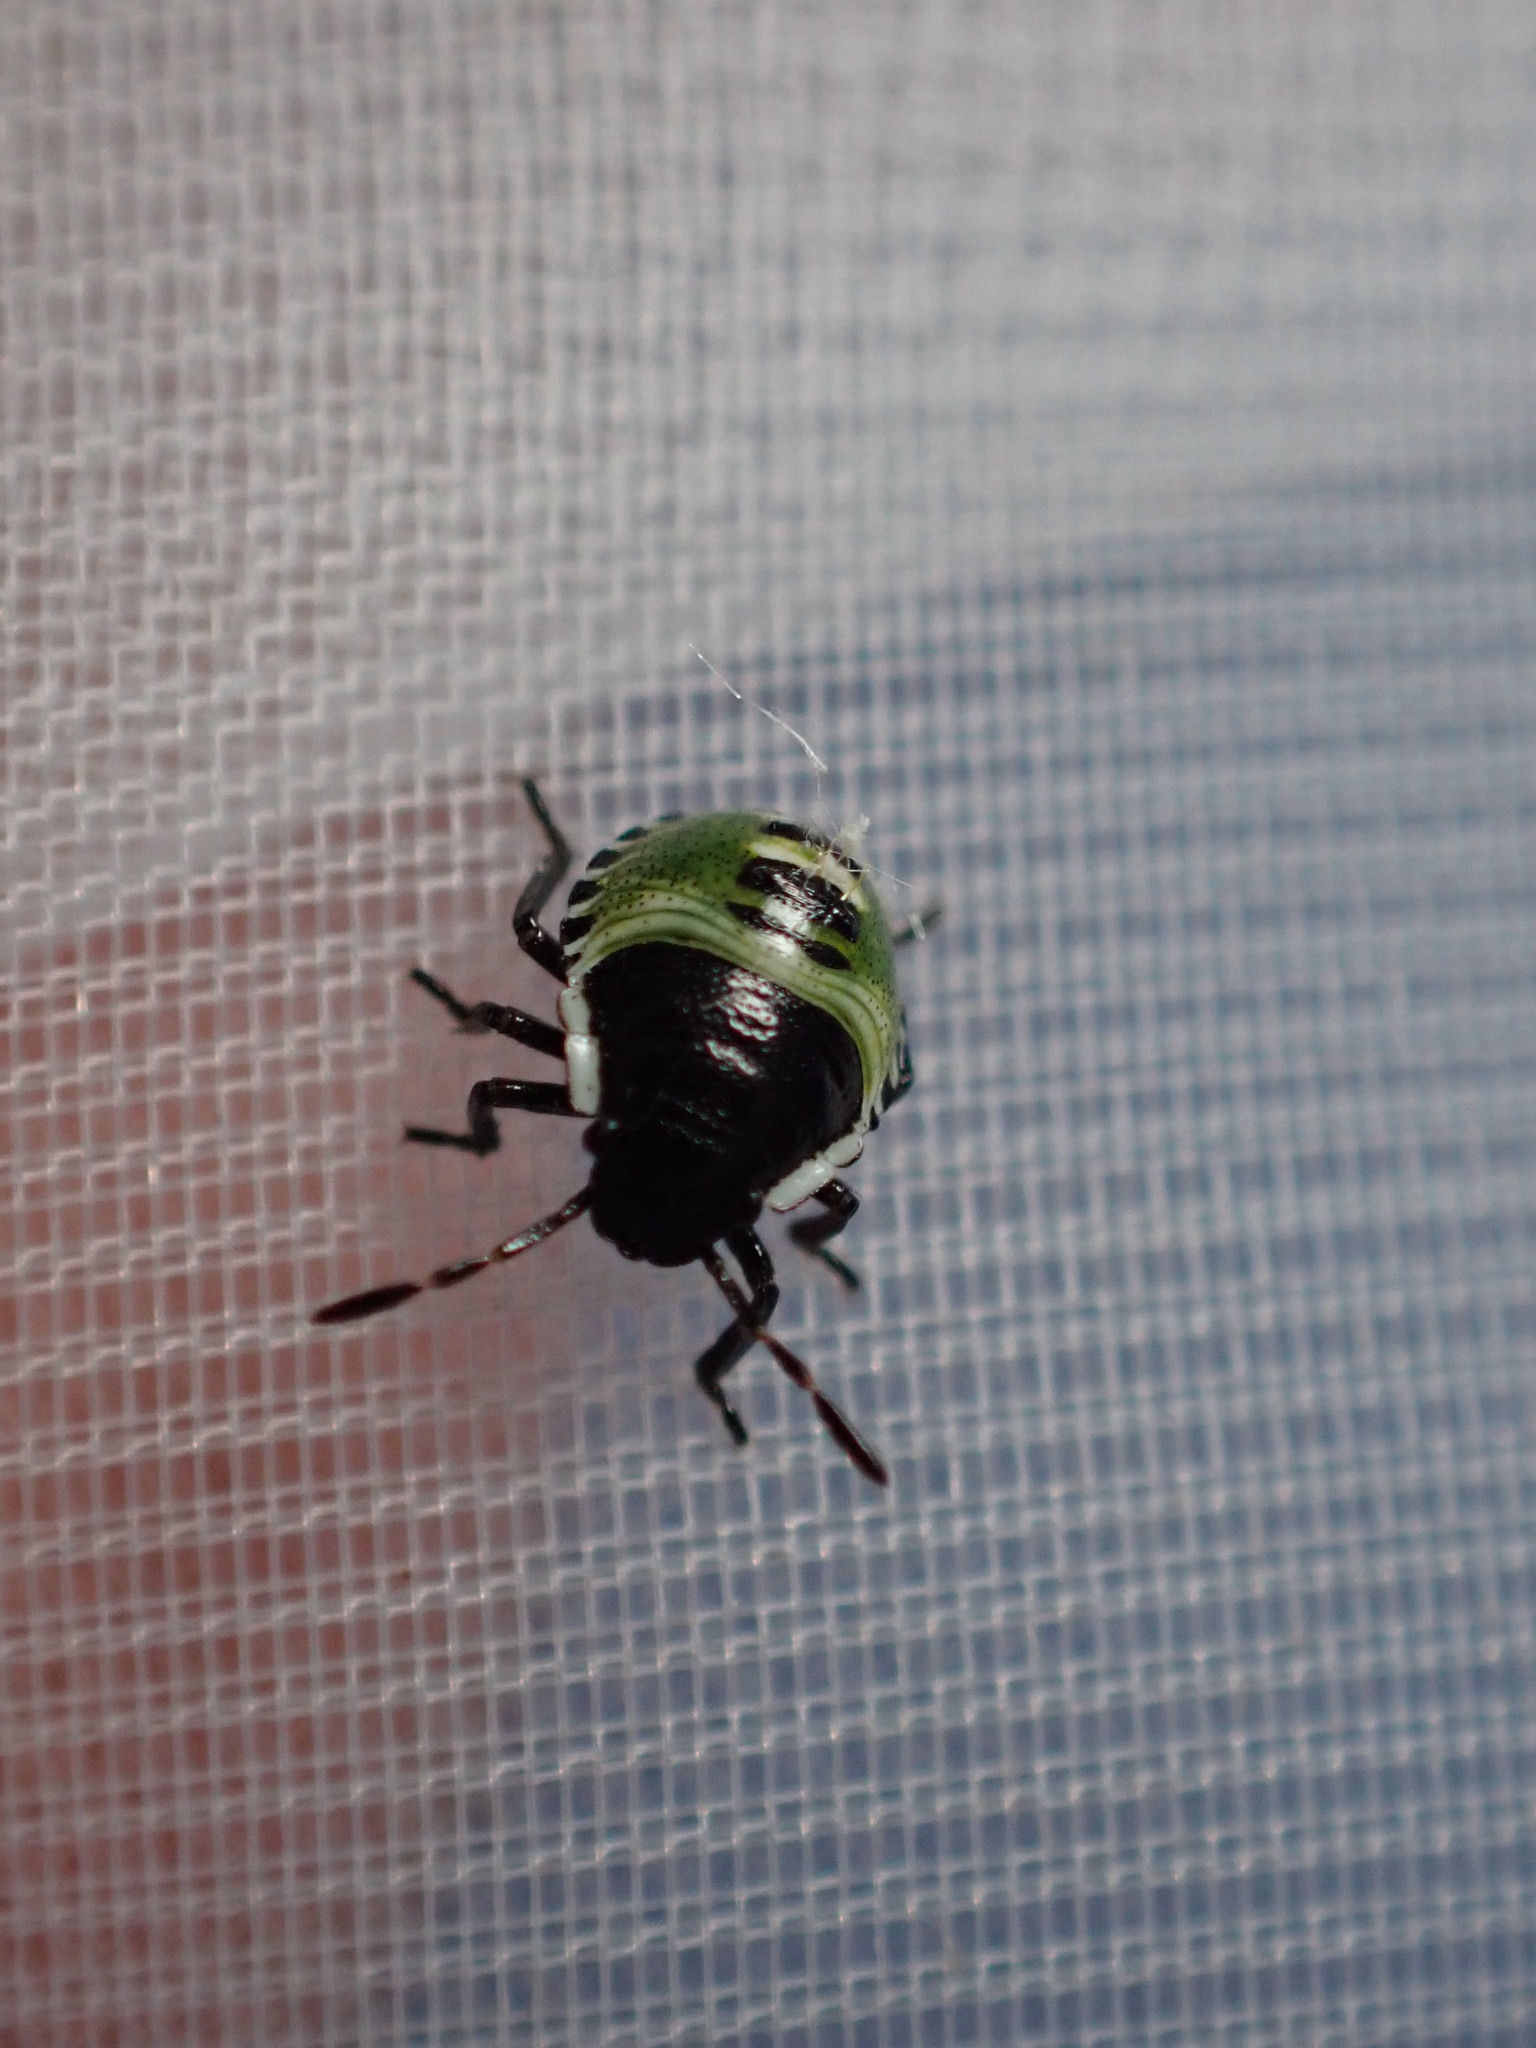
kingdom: Animalia
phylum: Arthropoda
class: Insecta
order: Hemiptera
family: Pentatomidae
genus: Palomena
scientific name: Palomena prasina
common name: Green shieldbug
